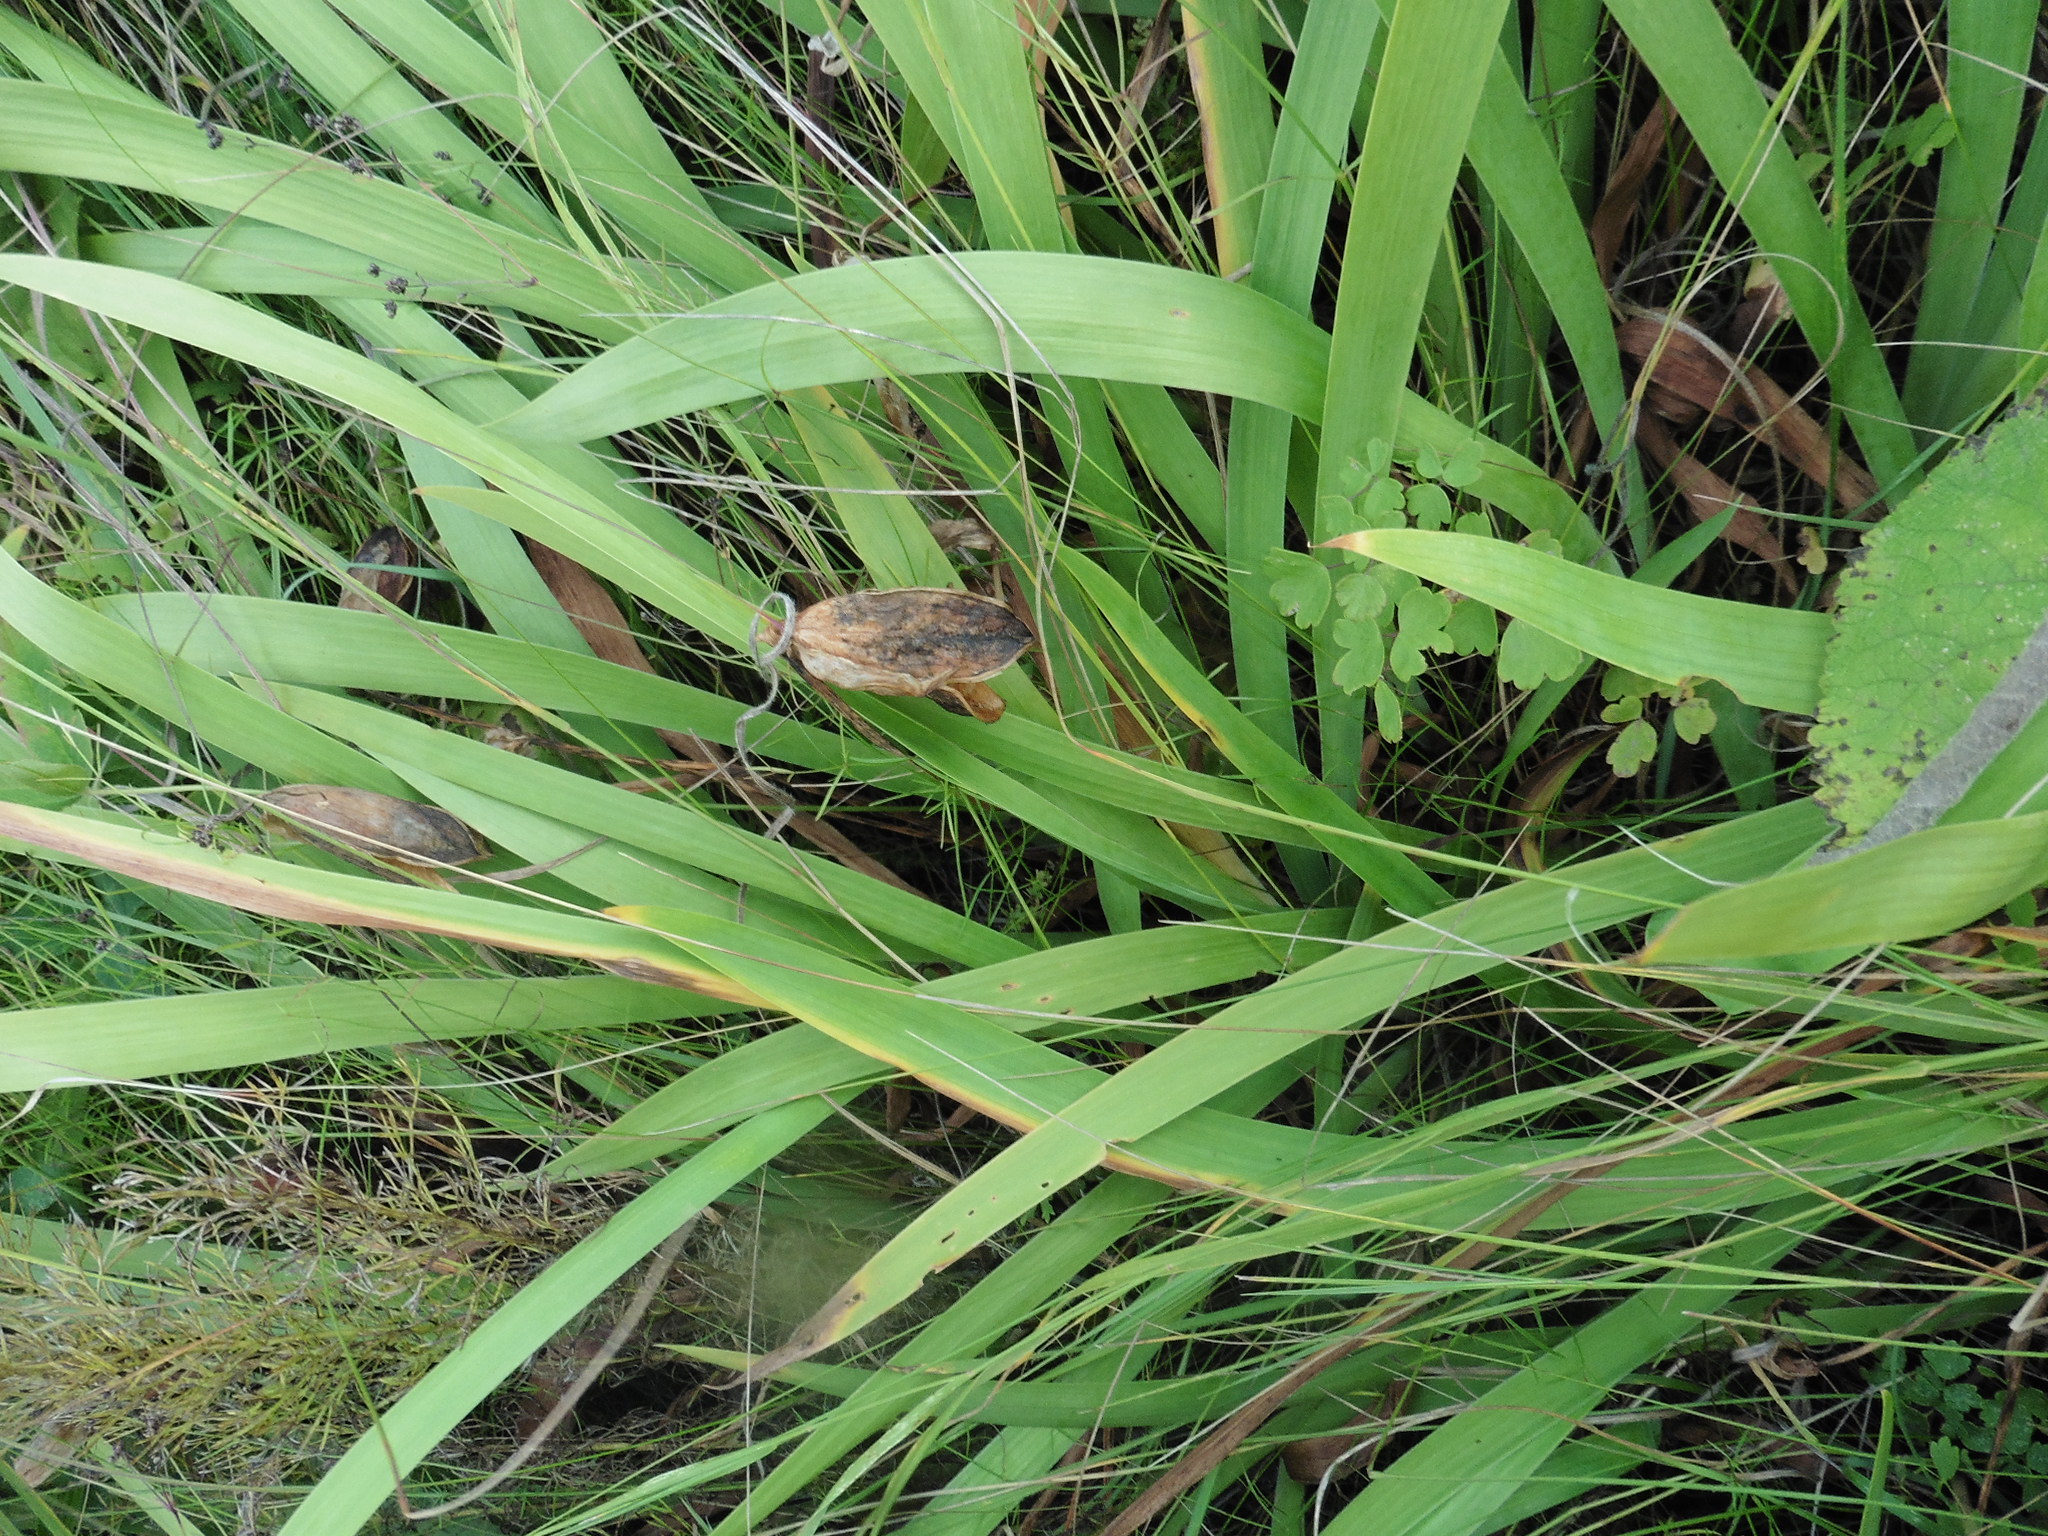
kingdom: Plantae
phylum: Tracheophyta
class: Liliopsida
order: Asparagales
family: Iridaceae
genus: Iris
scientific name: Iris aphylla
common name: Stool iris
